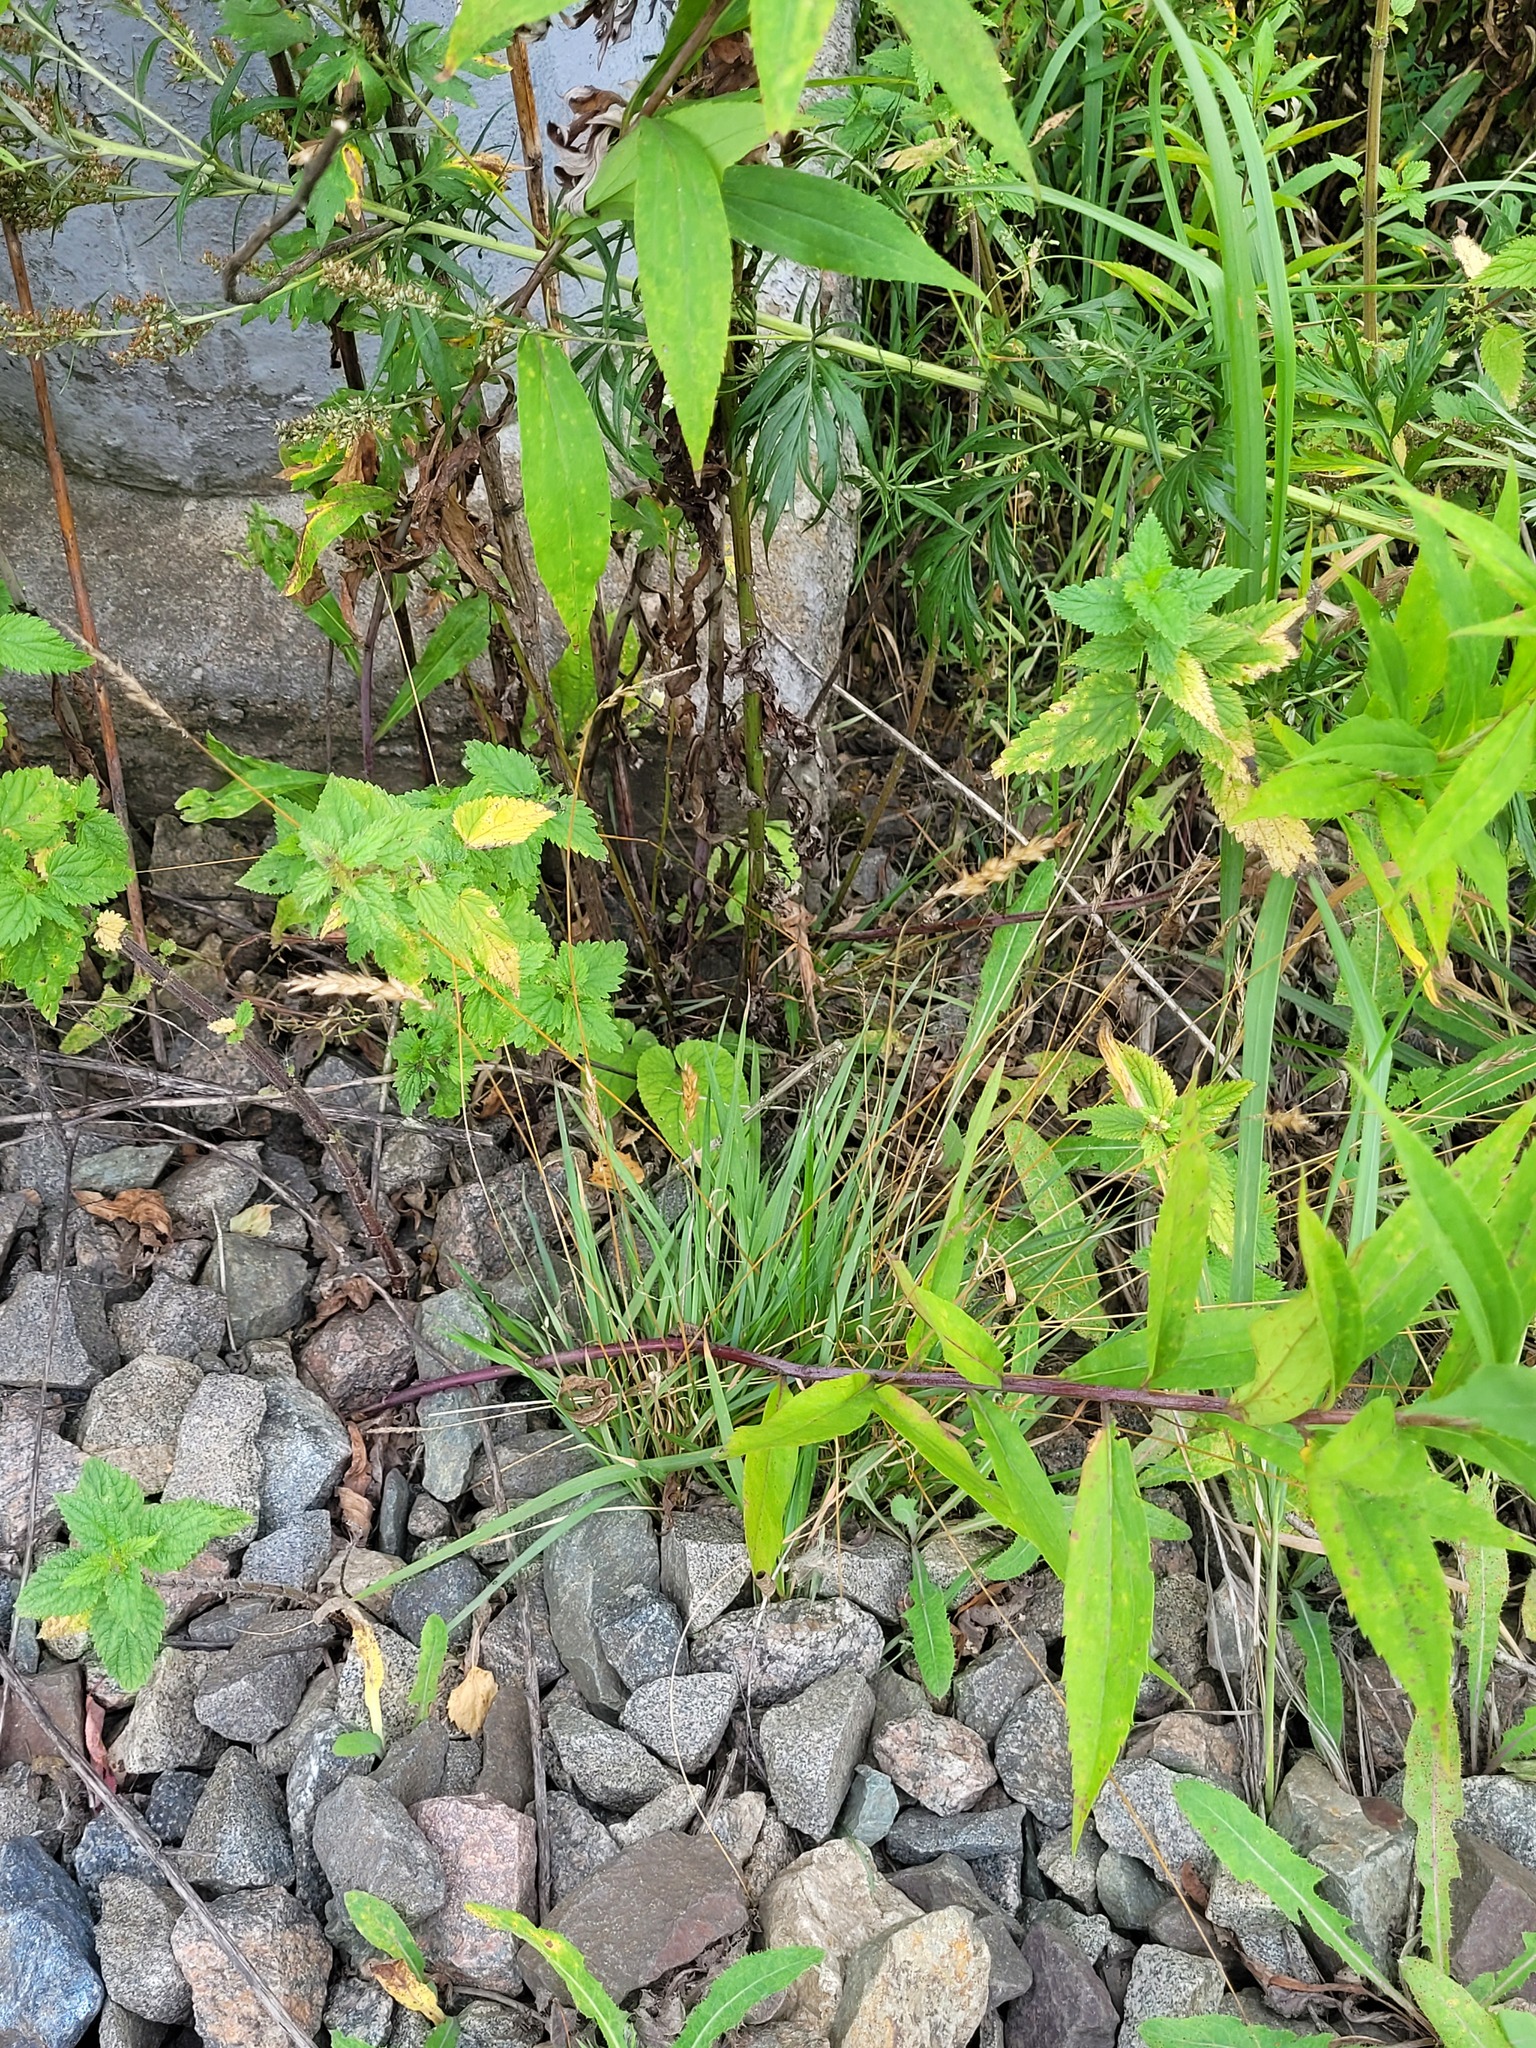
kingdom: Plantae
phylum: Tracheophyta
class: Liliopsida
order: Poales
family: Poaceae
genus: Anthoxanthum
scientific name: Anthoxanthum odoratum
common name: Sweet vernalgrass
